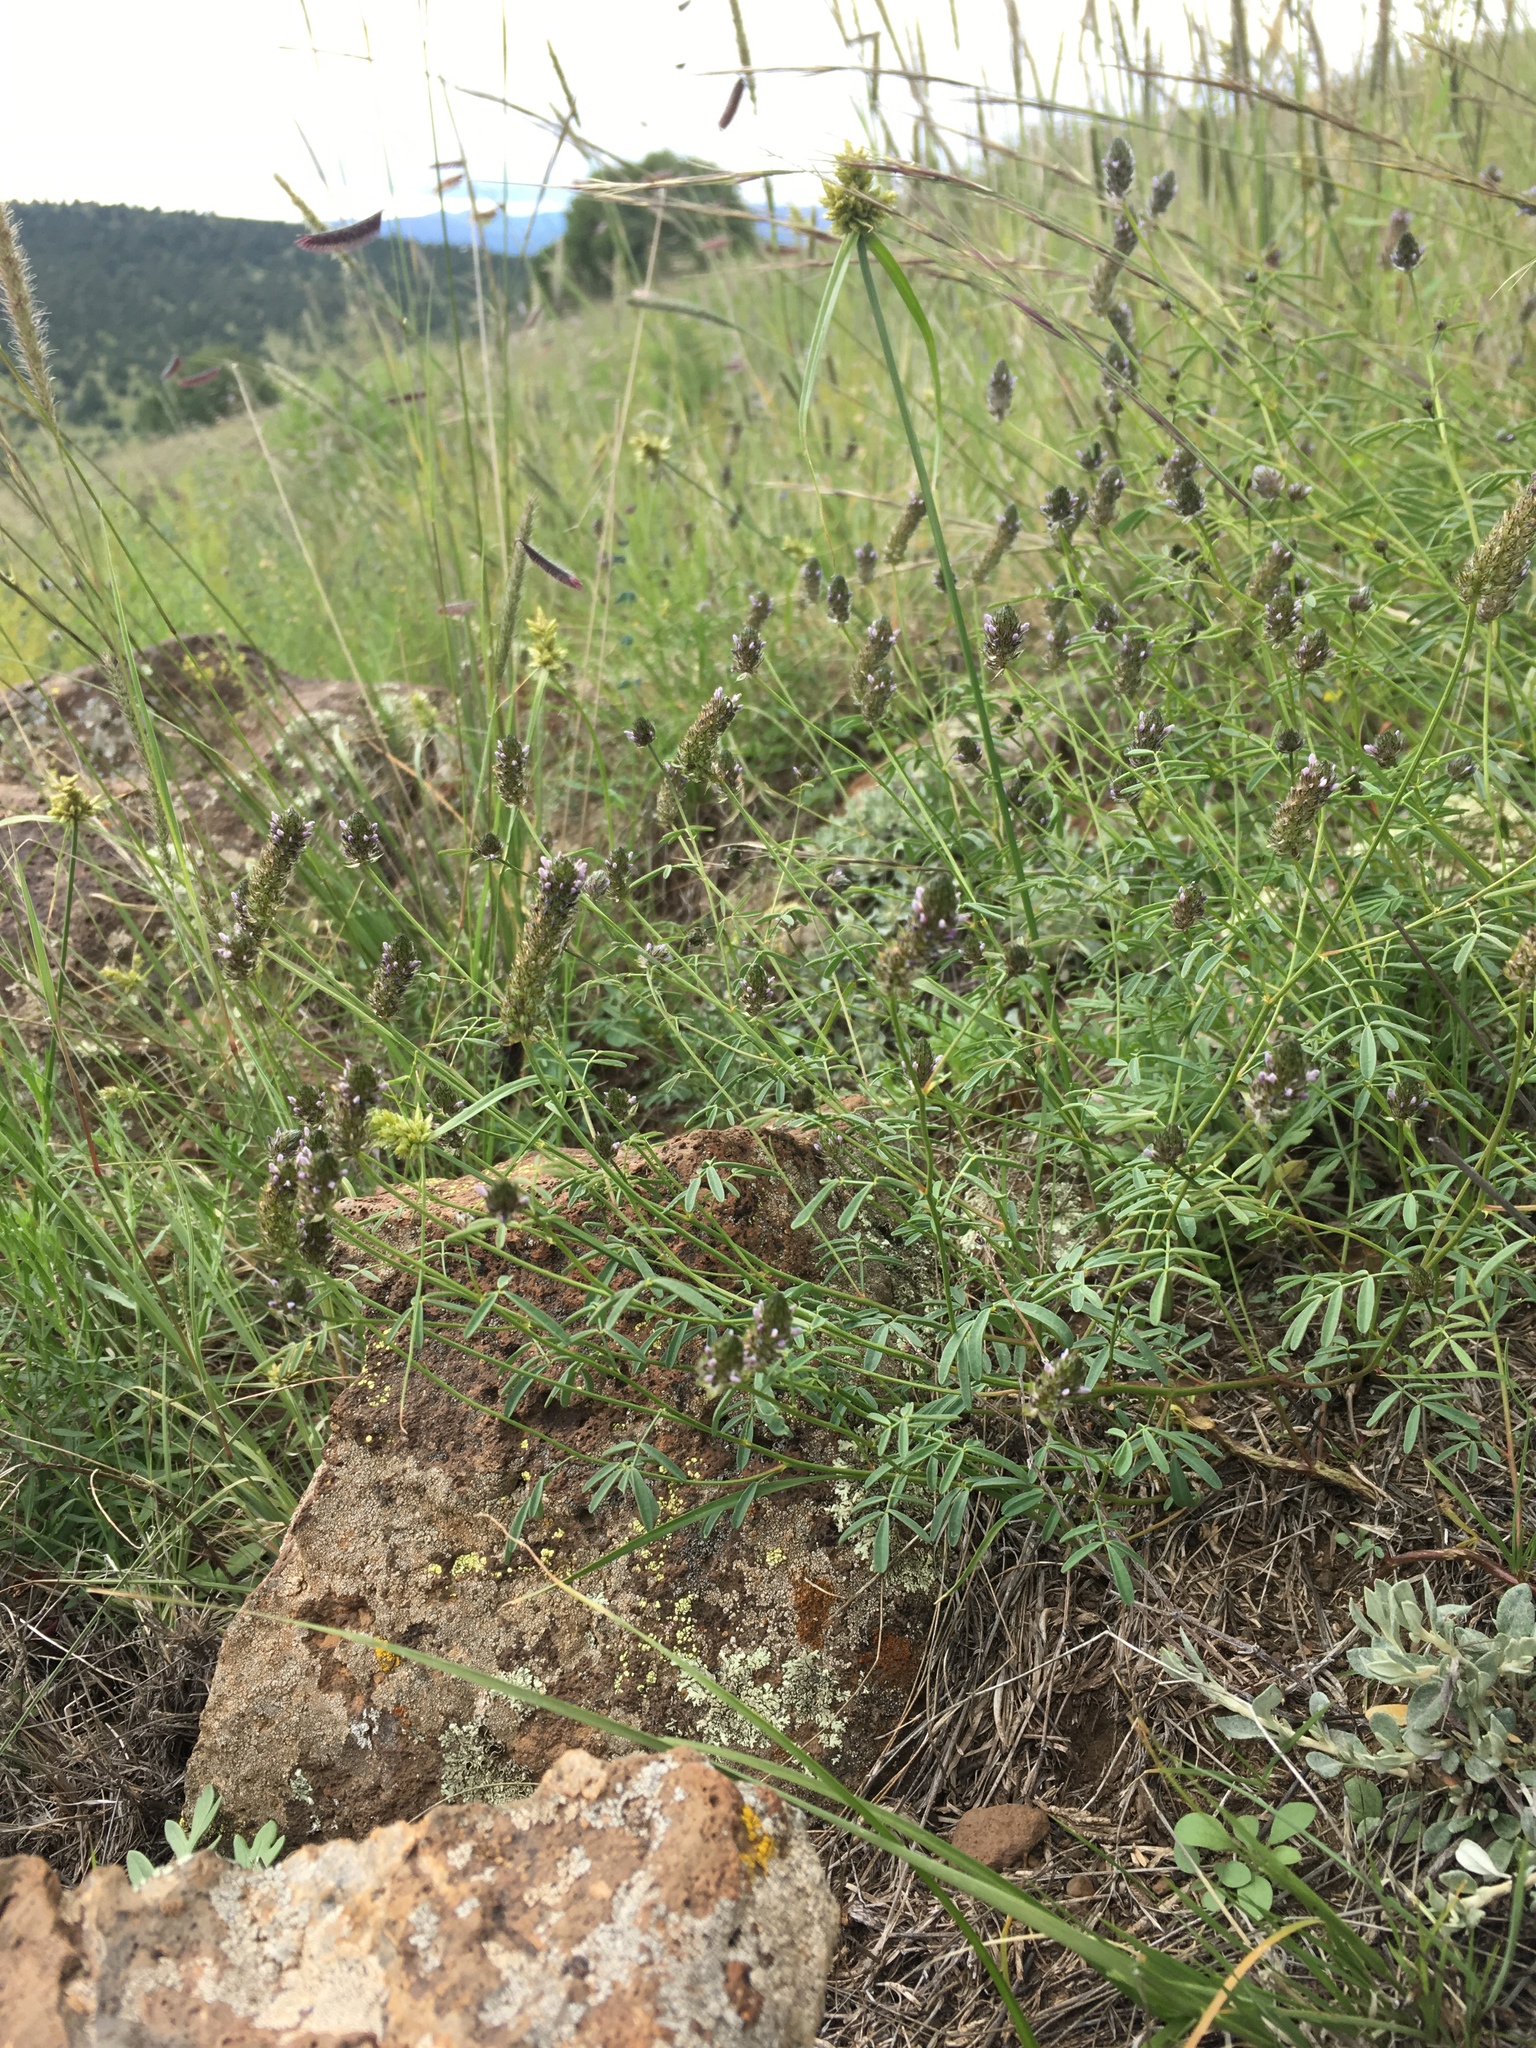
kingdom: Plantae
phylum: Tracheophyta
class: Magnoliopsida
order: Fabales
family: Fabaceae
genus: Dalea
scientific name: Dalea polygonoides
